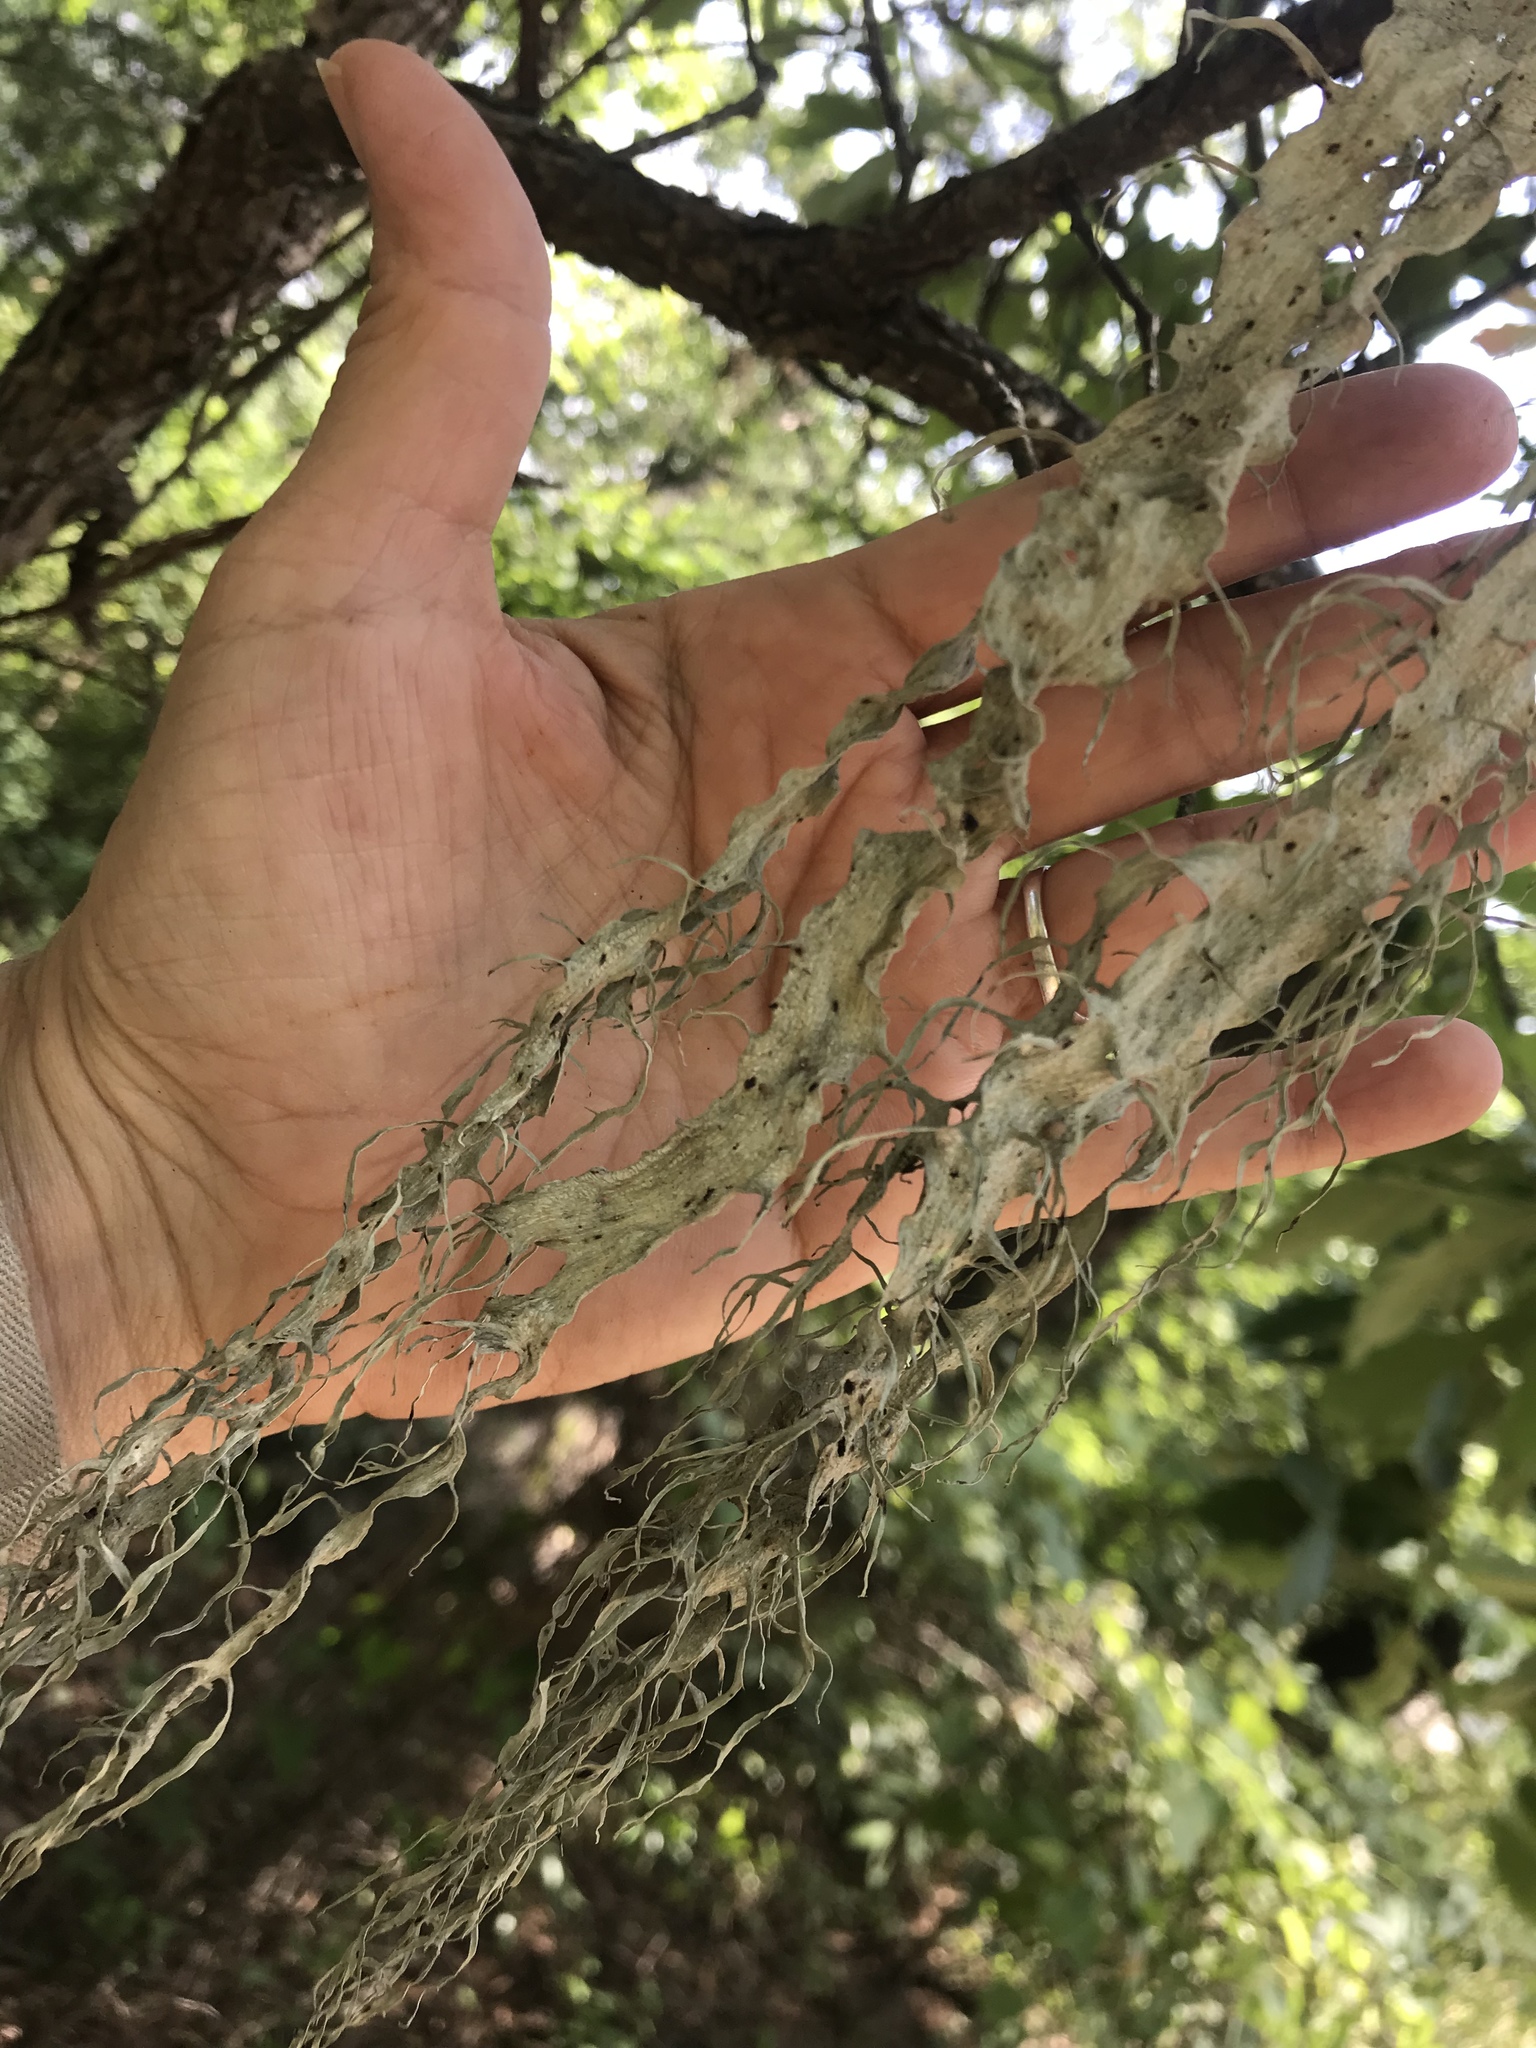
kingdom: Fungi
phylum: Ascomycota
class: Lecanoromycetes
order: Lecanorales
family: Ramalinaceae
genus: Ramalina
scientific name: Ramalina
